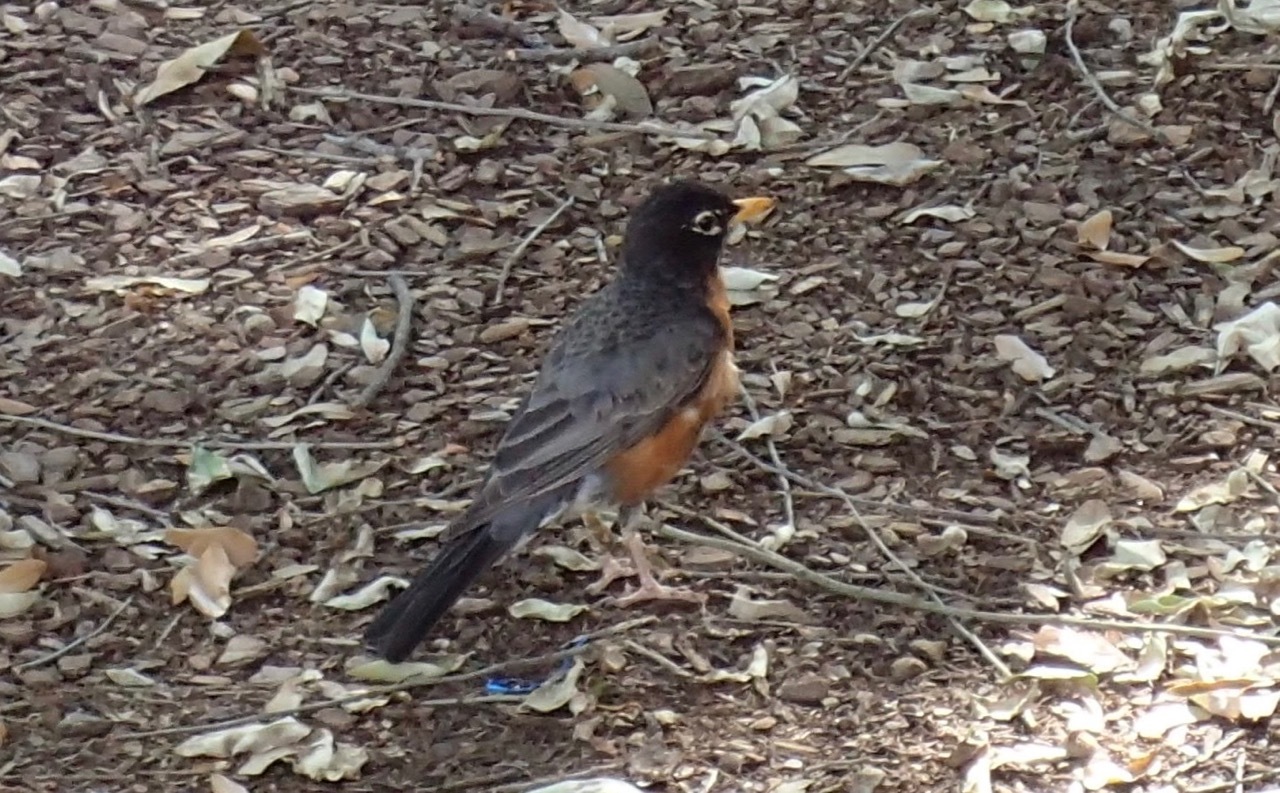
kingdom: Animalia
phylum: Chordata
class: Aves
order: Passeriformes
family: Turdidae
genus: Turdus
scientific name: Turdus migratorius
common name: American robin
